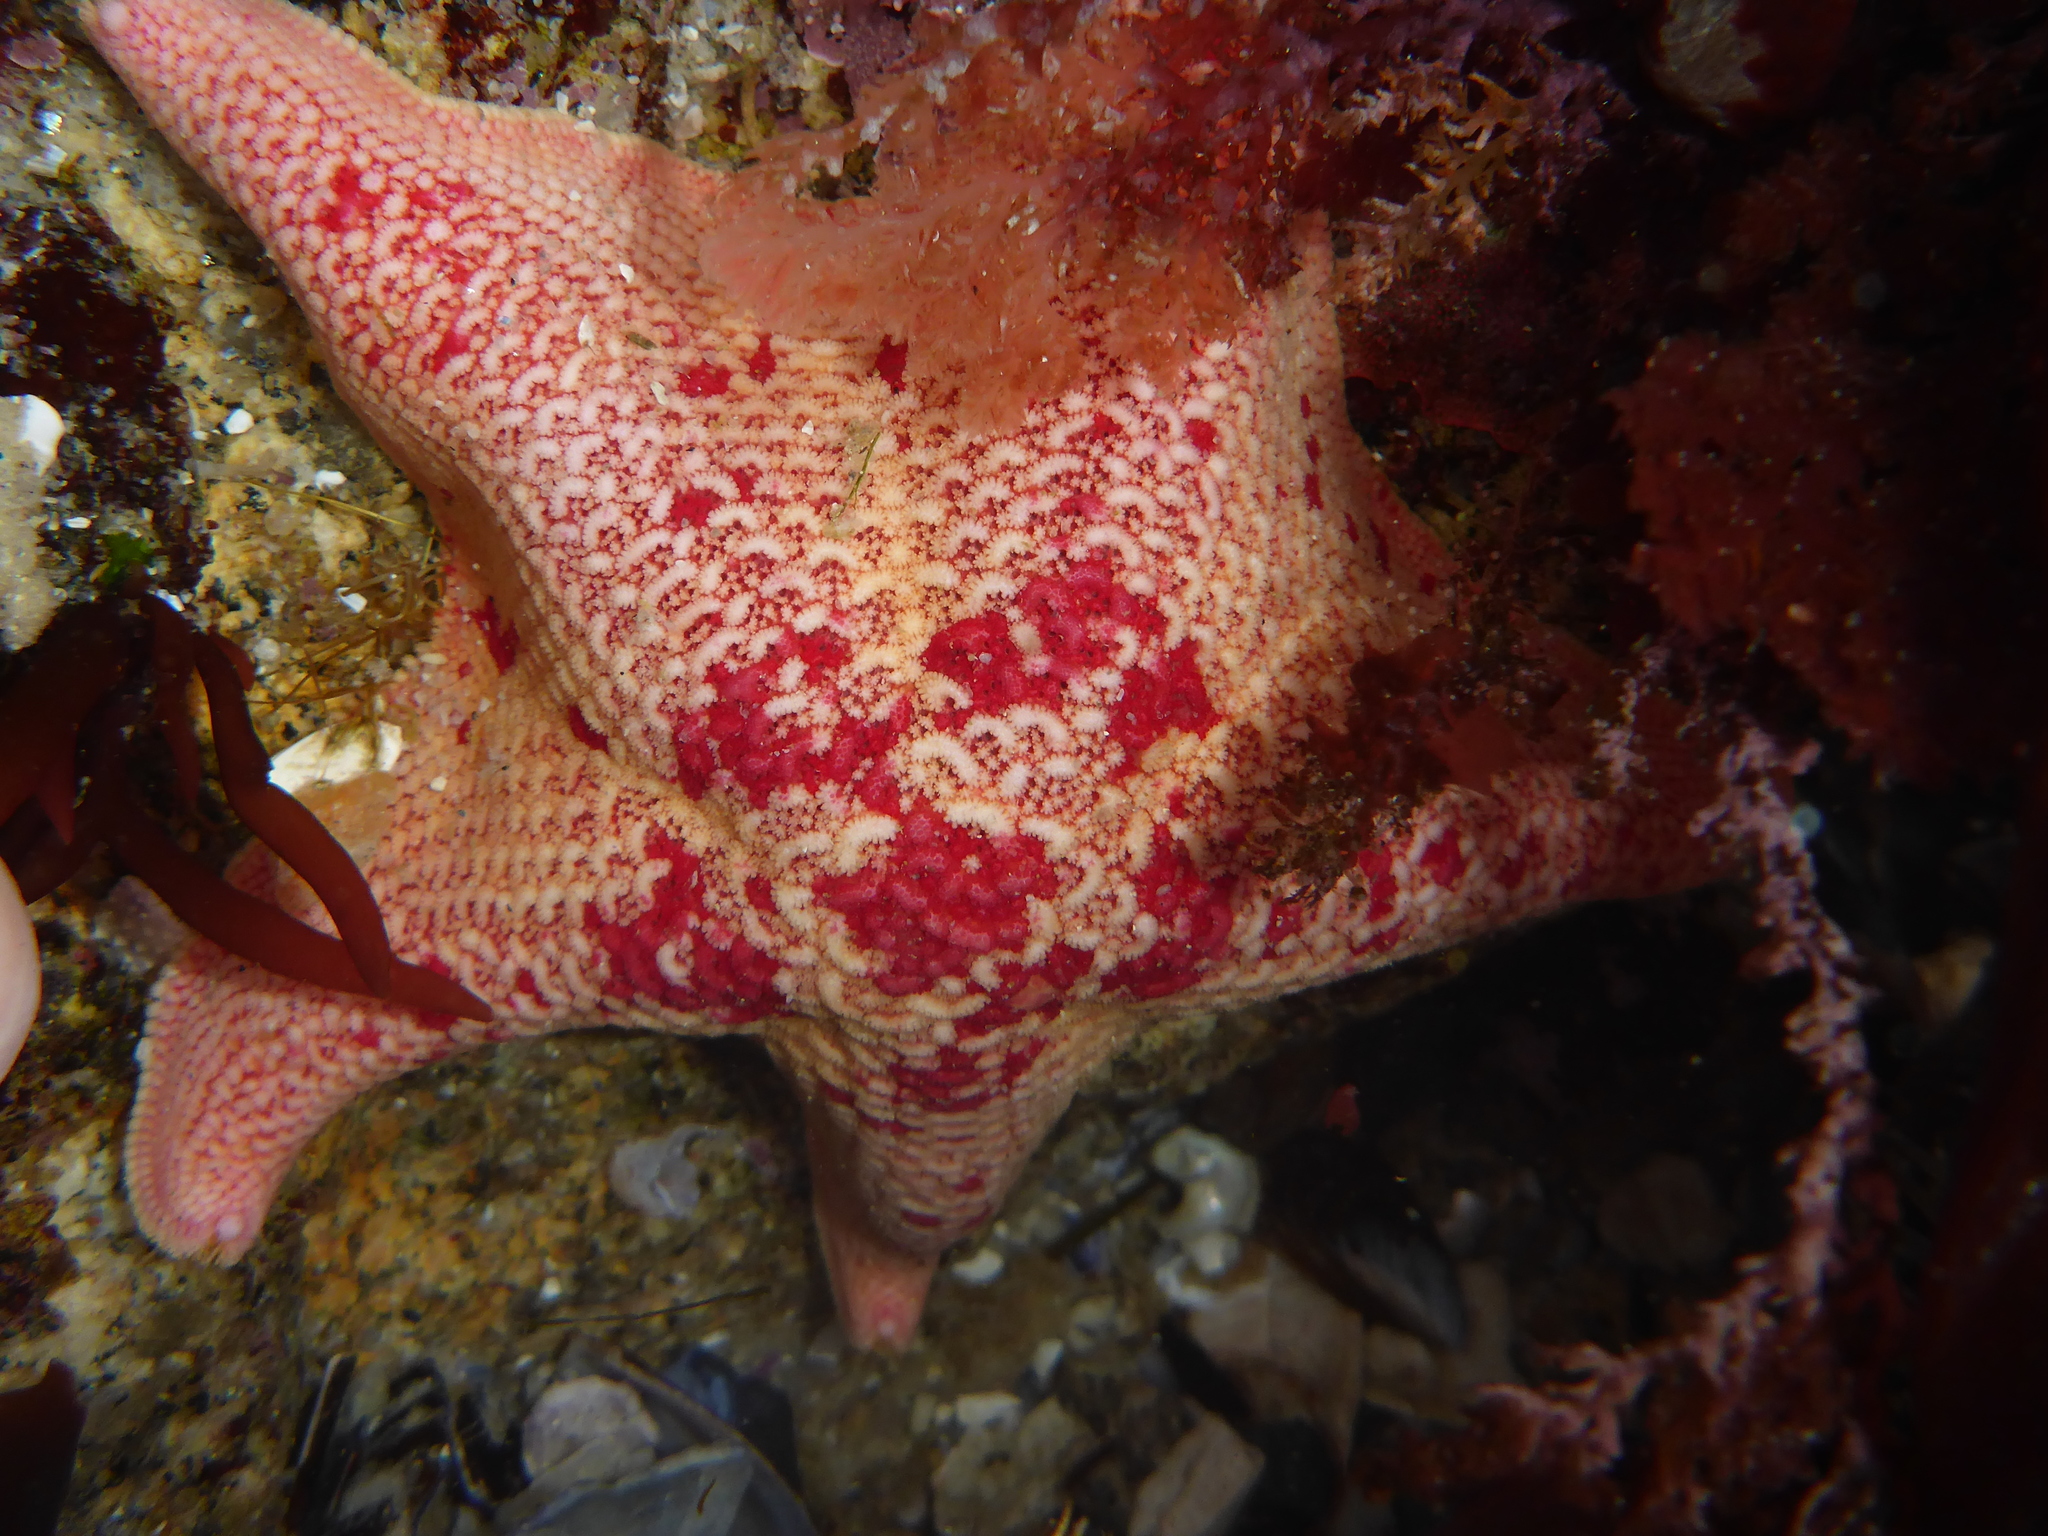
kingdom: Animalia
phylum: Echinodermata
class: Asteroidea
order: Valvatida
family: Asterinidae
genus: Patiria
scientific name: Patiria miniata
